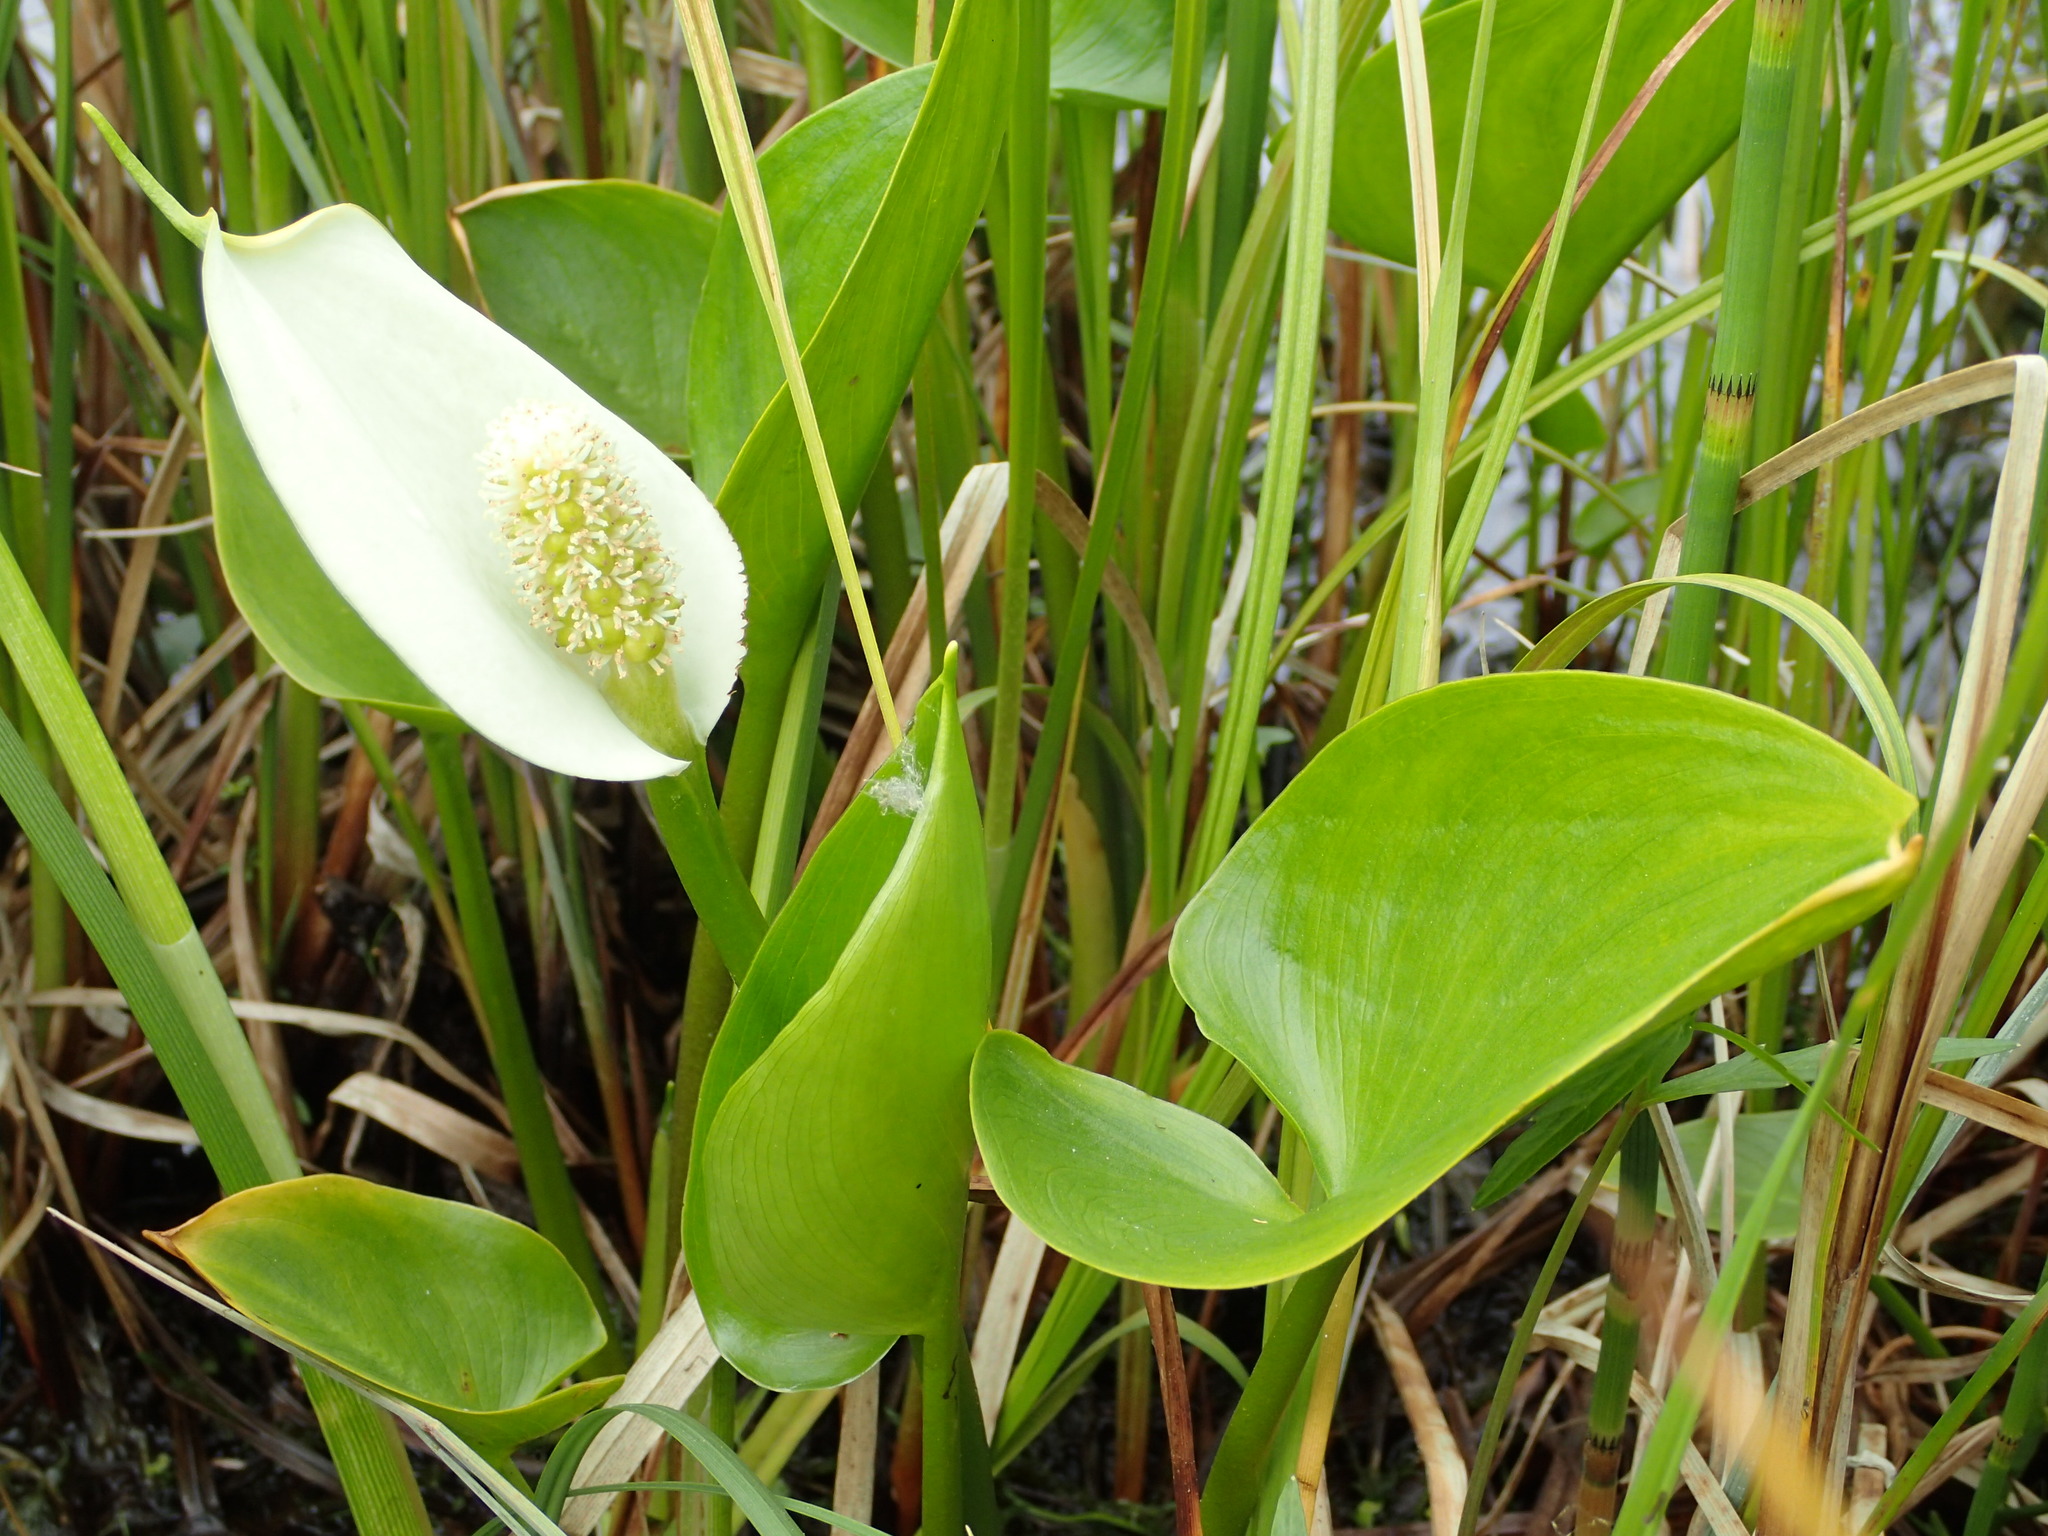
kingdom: Plantae
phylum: Tracheophyta
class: Liliopsida
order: Alismatales
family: Araceae
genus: Calla
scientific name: Calla palustris
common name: Bog arum
